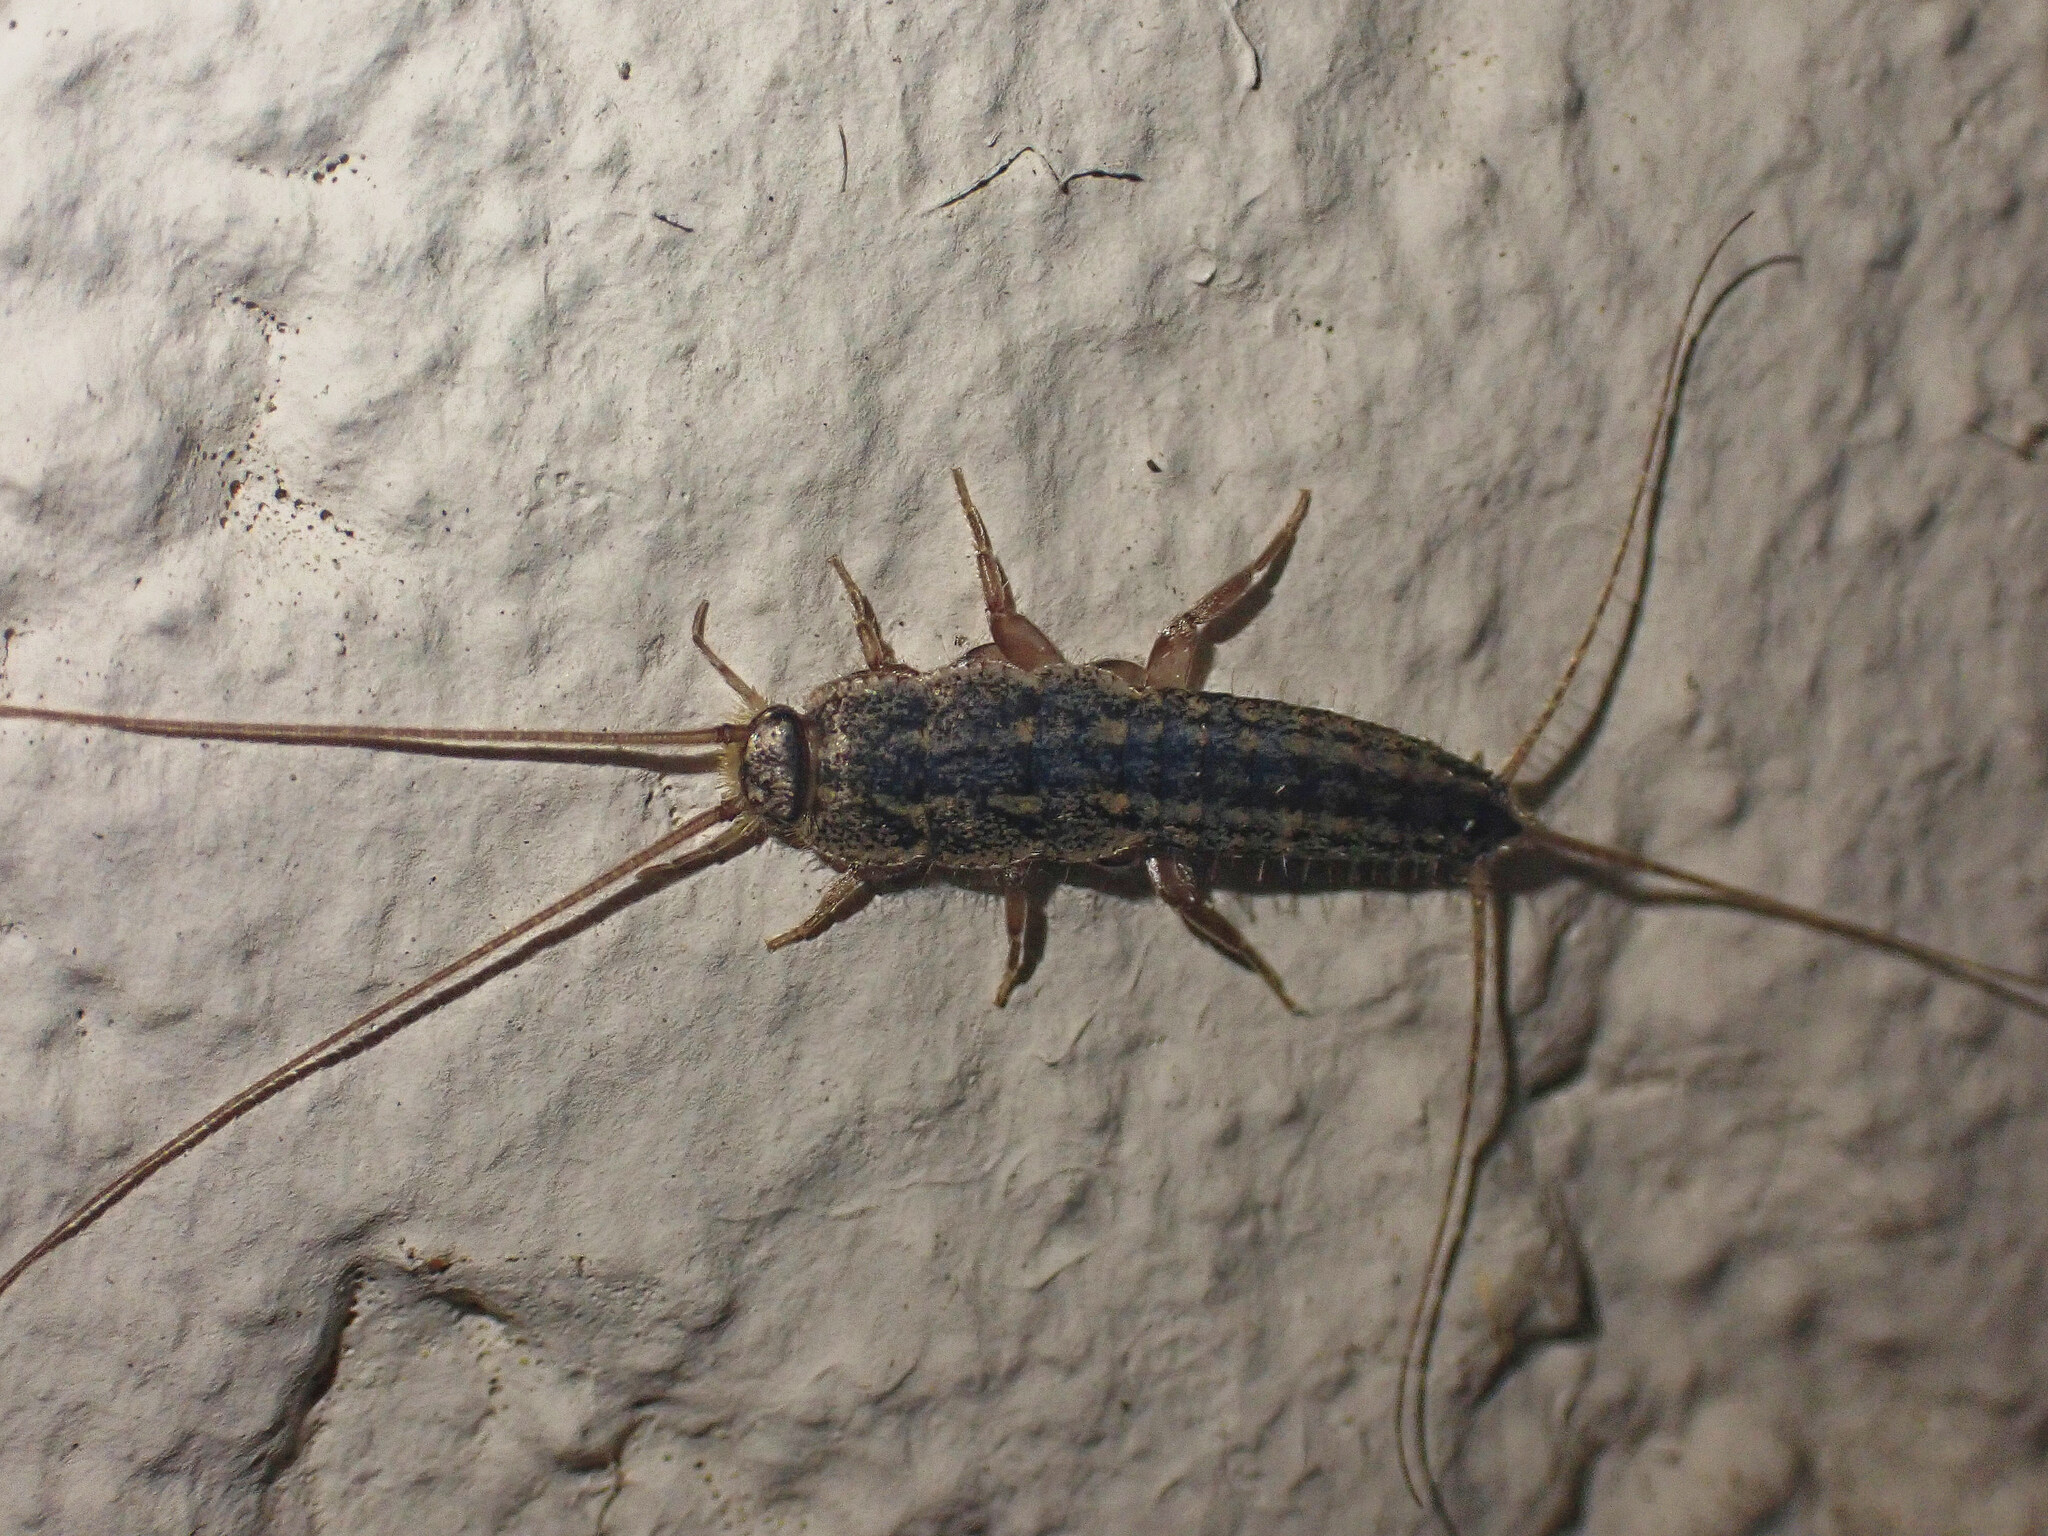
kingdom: Animalia
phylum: Arthropoda
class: Insecta
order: Zygentoma
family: Lepismatidae
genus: Ctenolepisma
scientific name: Ctenolepisma lineata
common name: Four-lined silverfish
